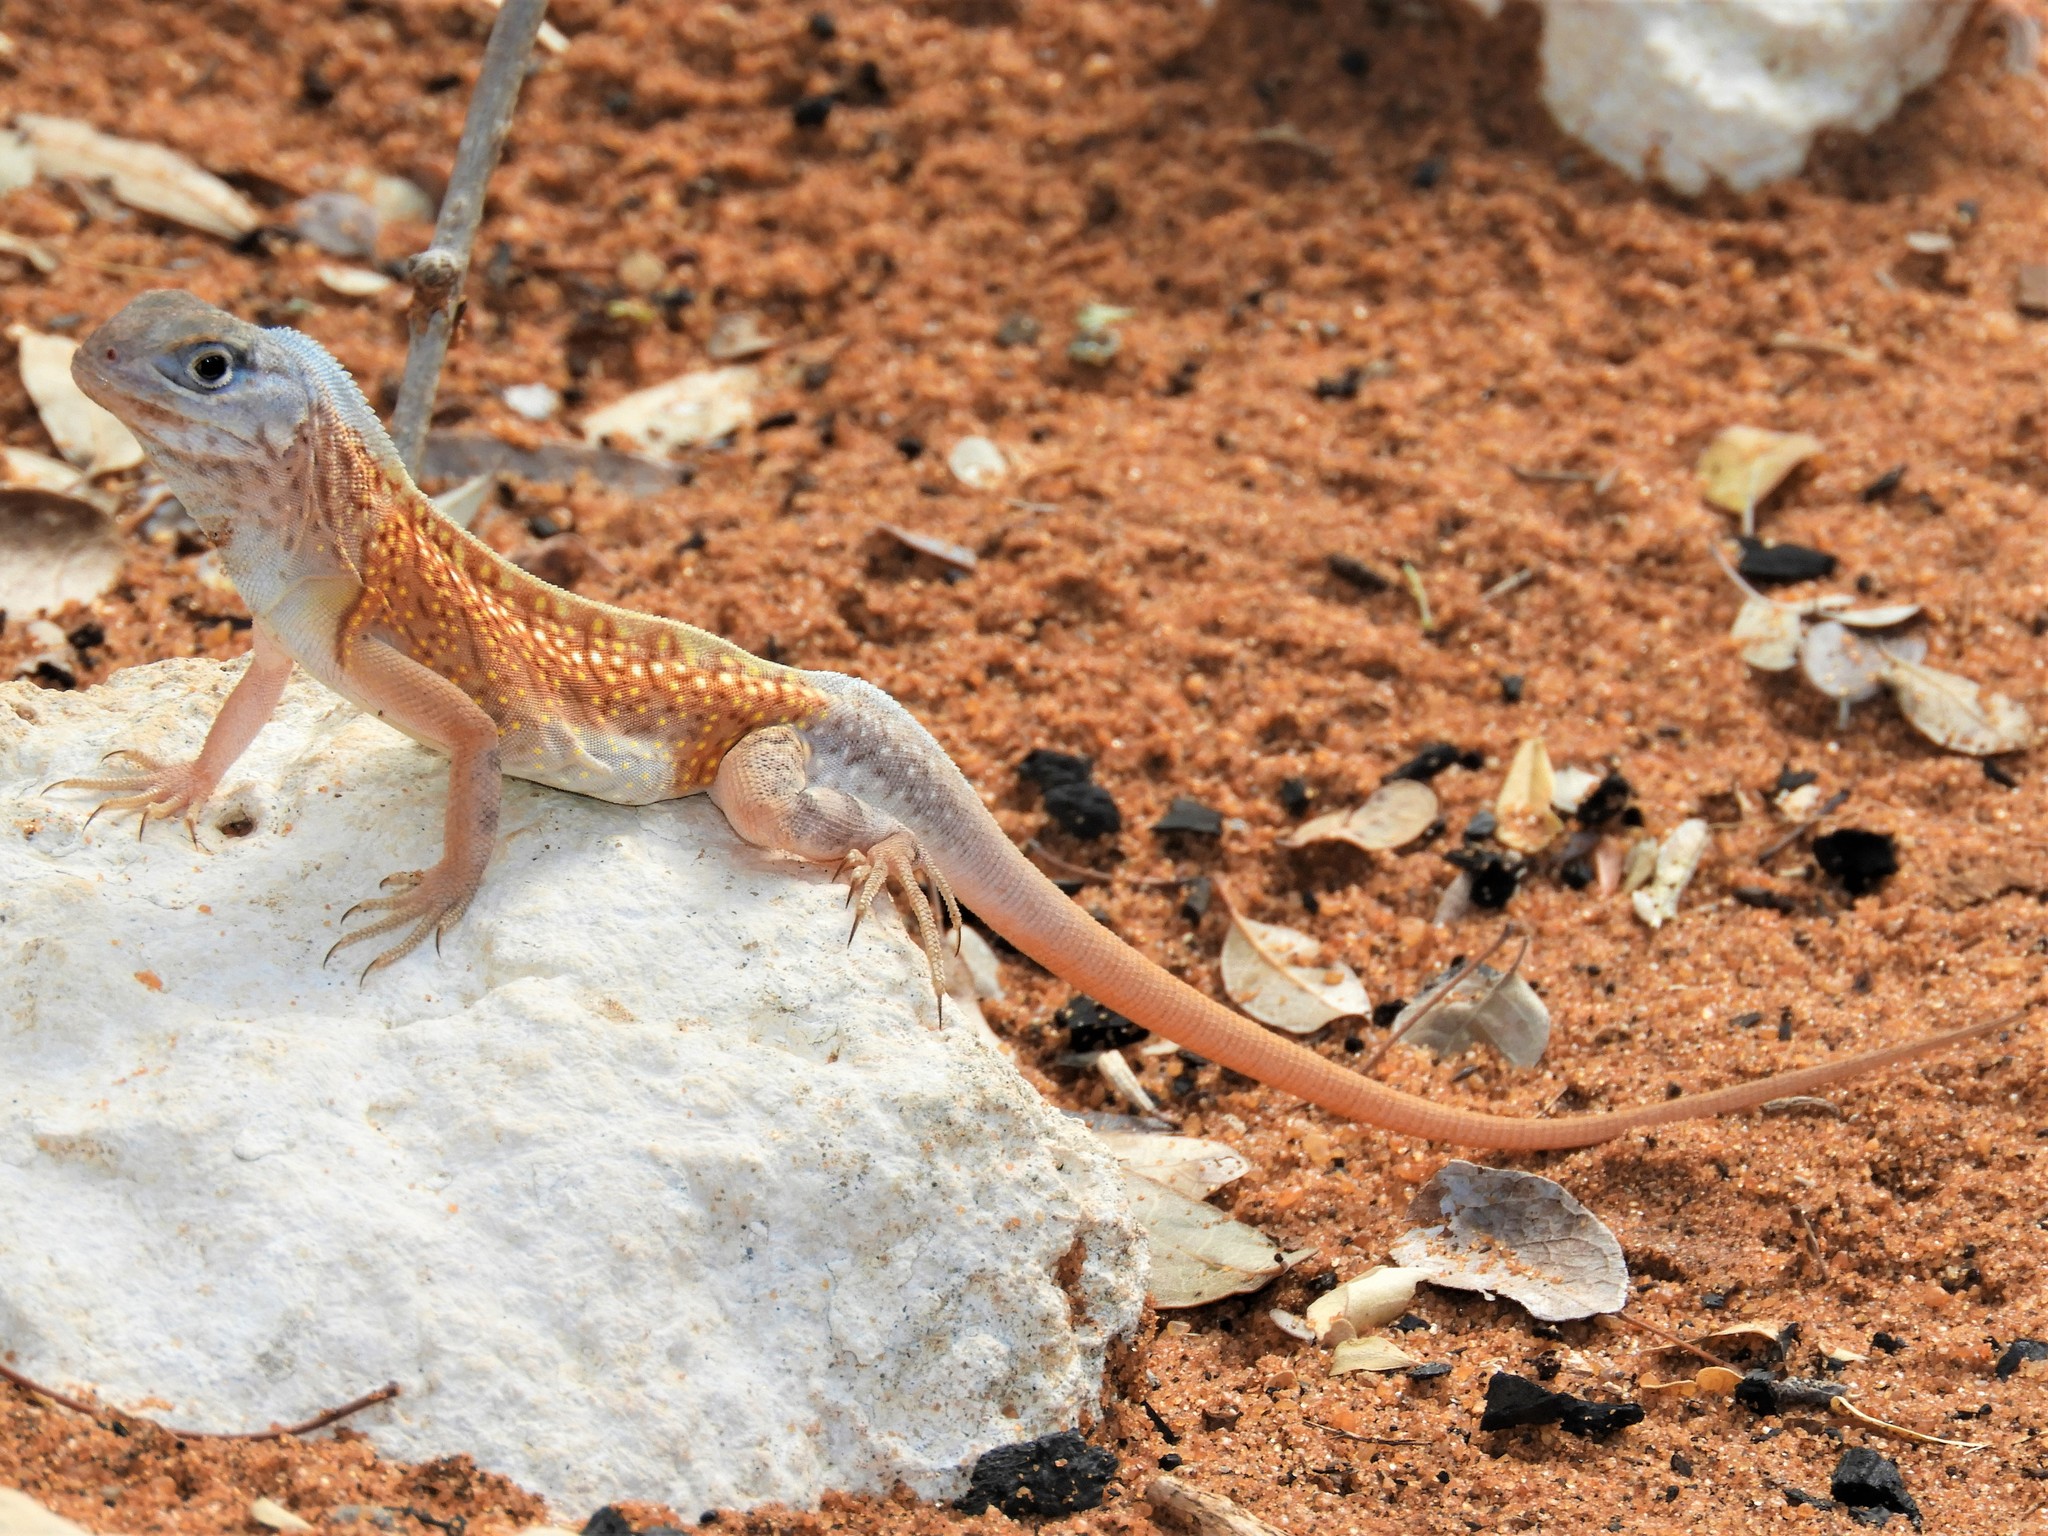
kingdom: Animalia
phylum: Chordata
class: Squamata
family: Opluridae
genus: Chalarodon
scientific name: Chalarodon madagascariensis
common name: Madagascar iguana
